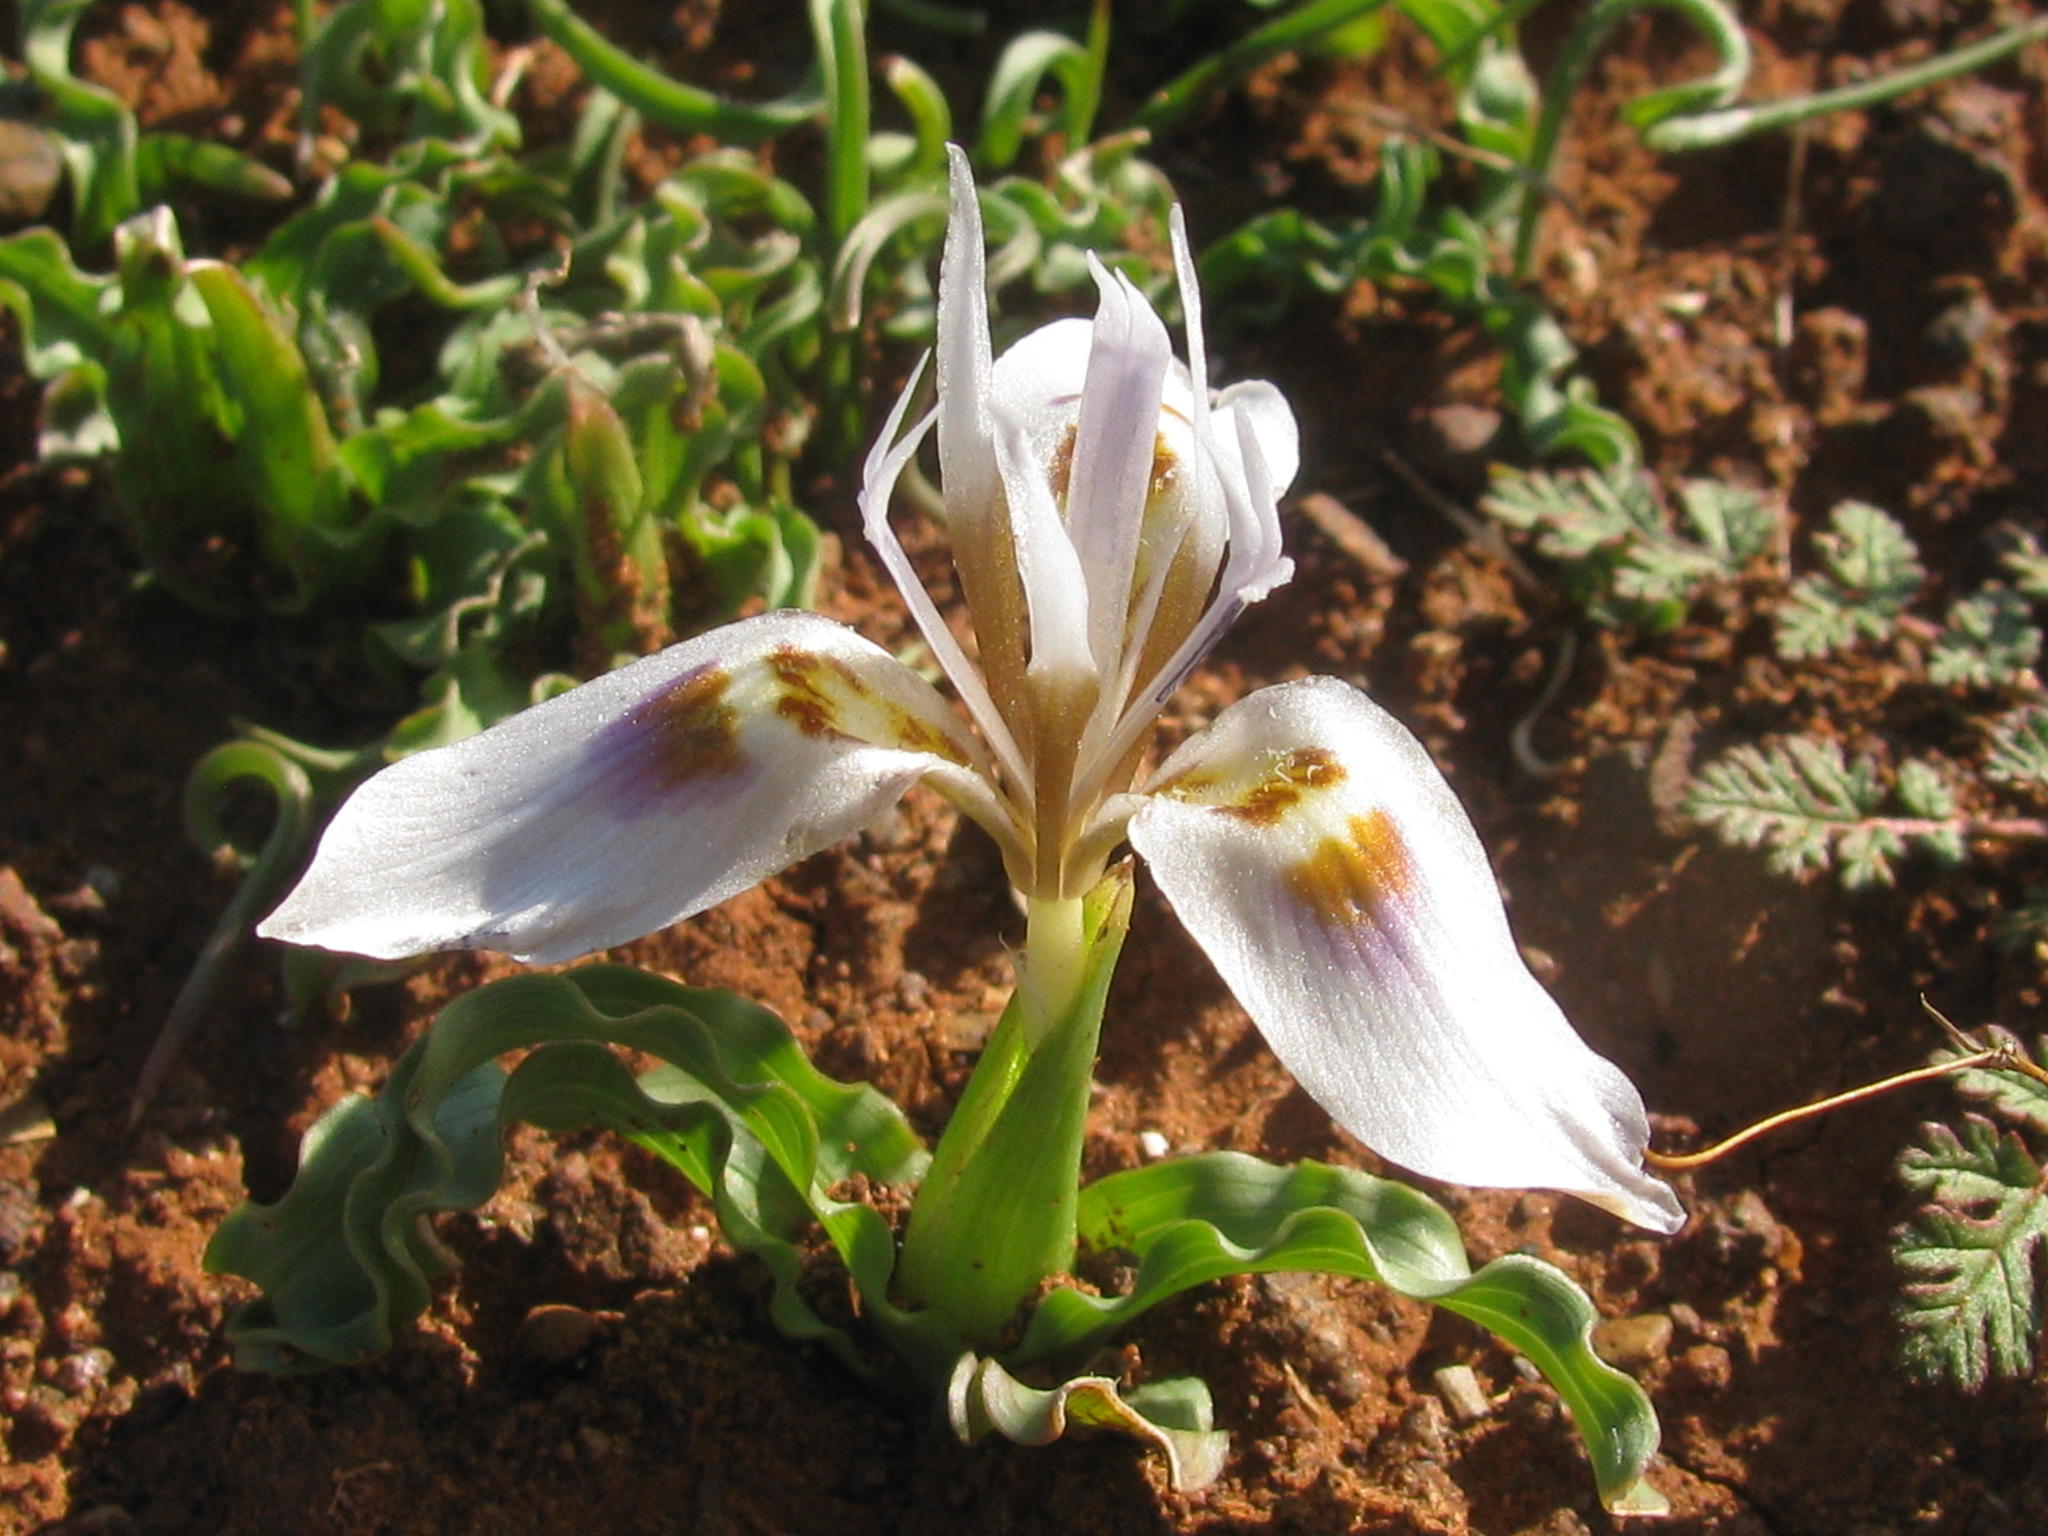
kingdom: Plantae
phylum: Tracheophyta
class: Liliopsida
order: Asparagales
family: Iridaceae
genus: Moraea
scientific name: Moraea ciliata
